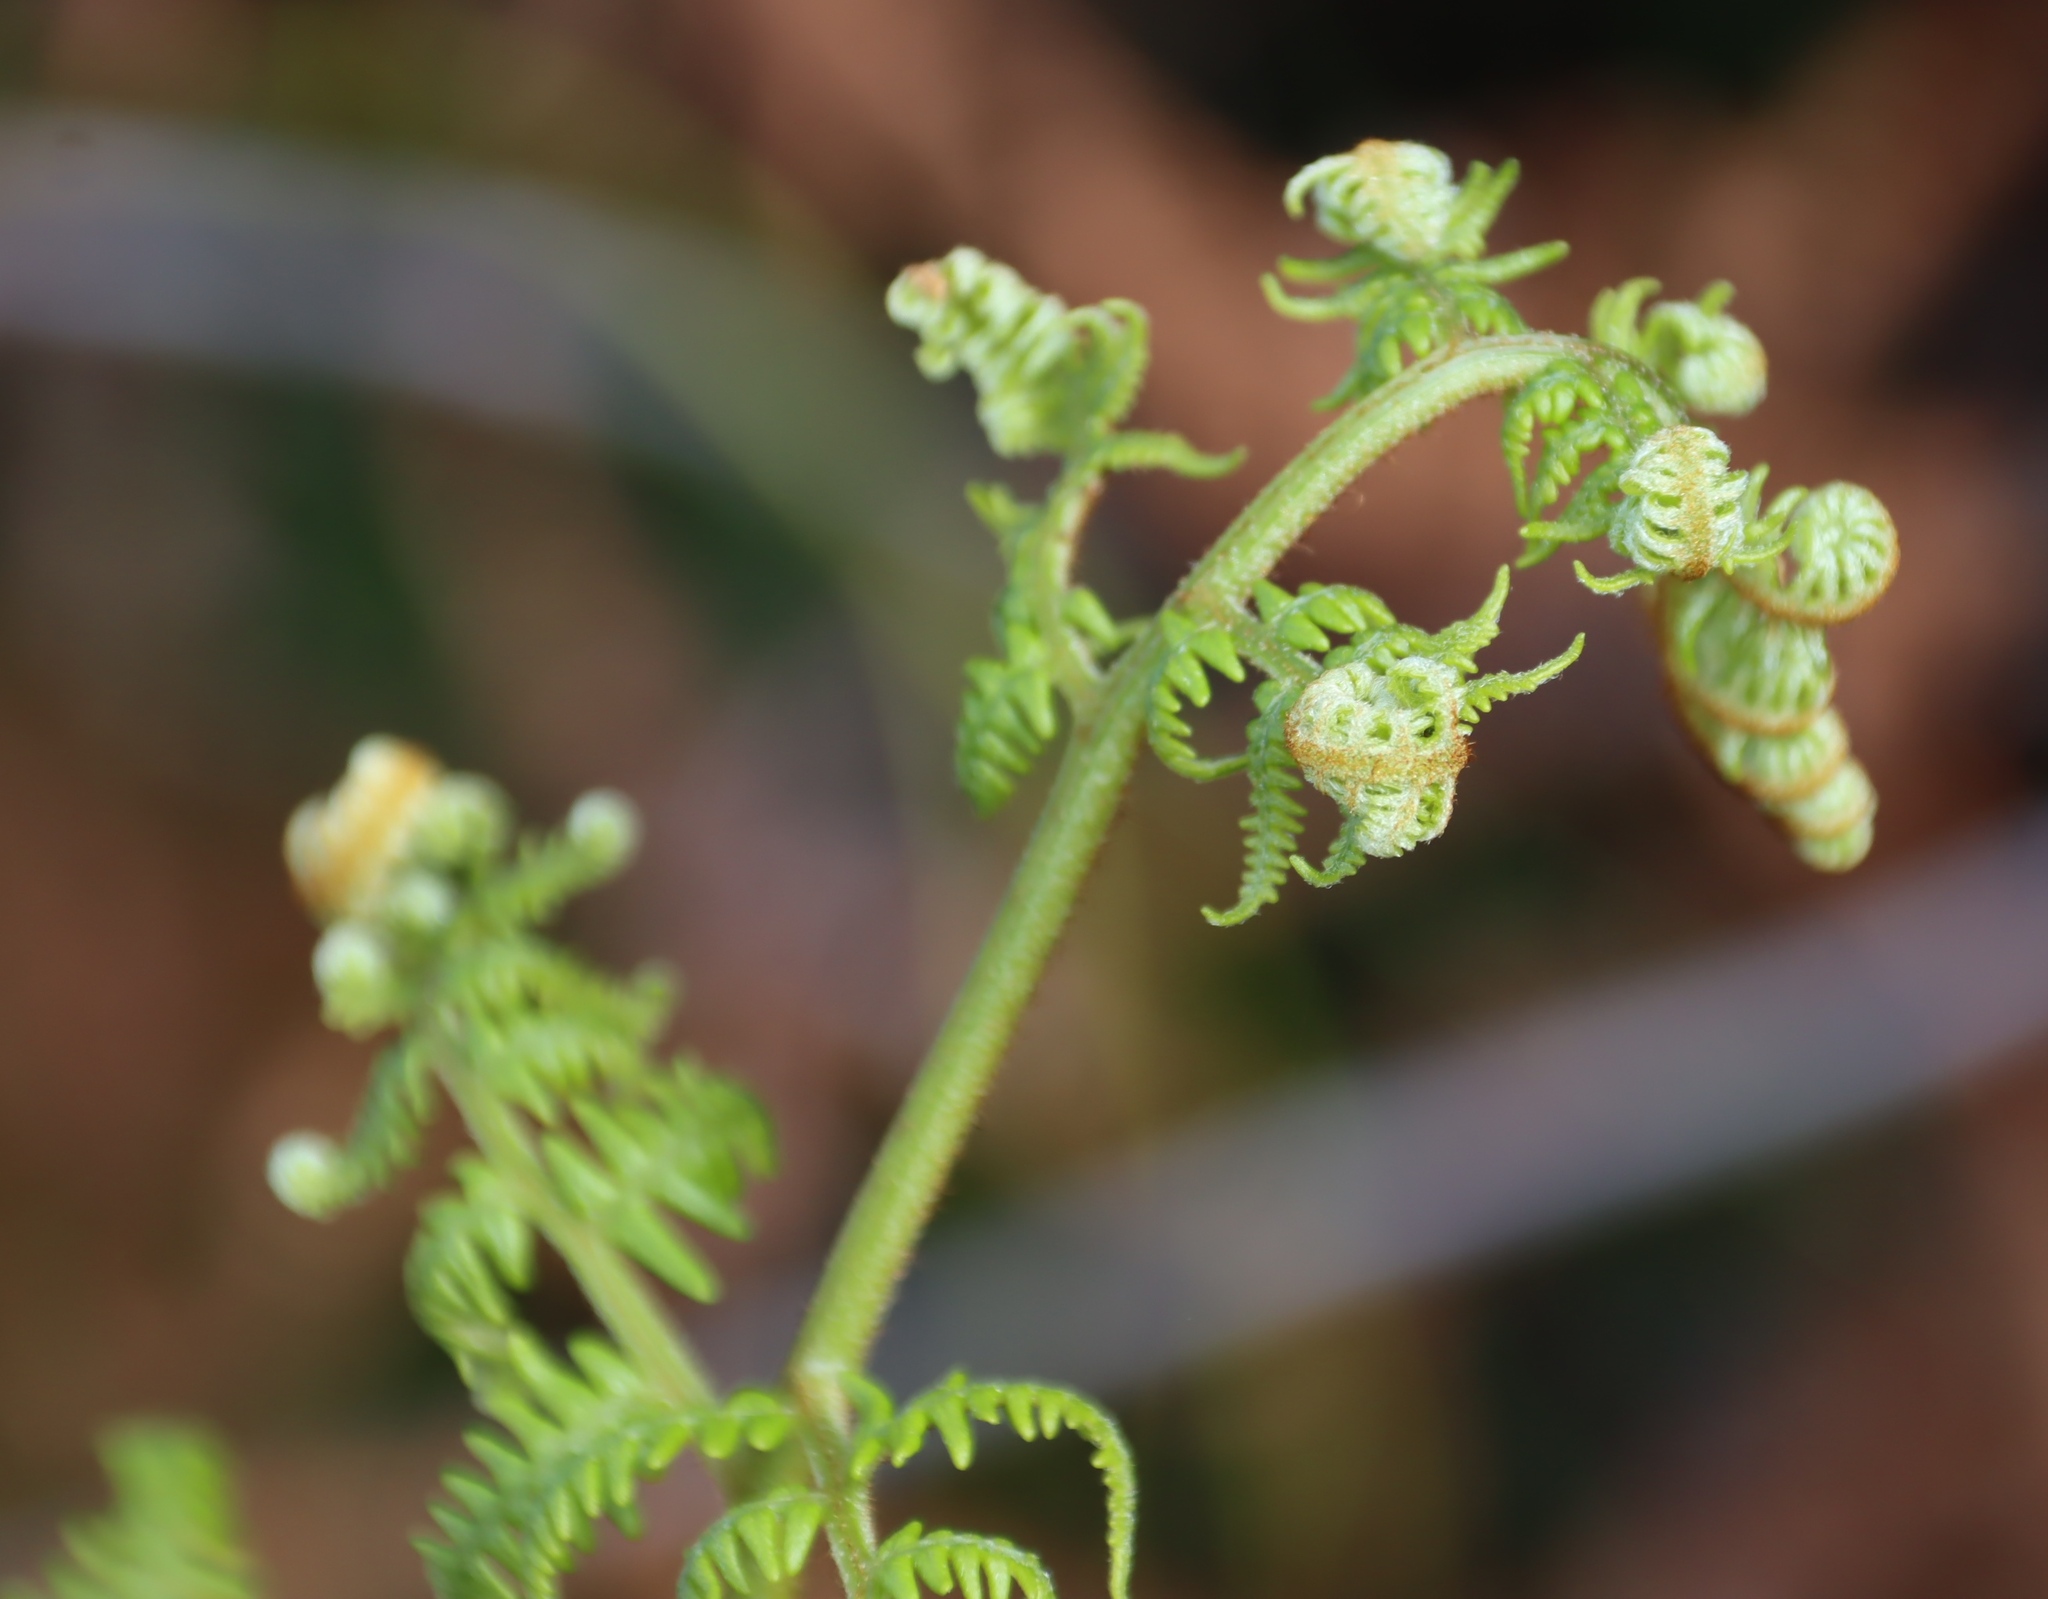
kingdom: Plantae
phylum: Tracheophyta
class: Polypodiopsida
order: Polypodiales
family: Dennstaedtiaceae
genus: Pteridium
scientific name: Pteridium aquilinum
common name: Bracken
